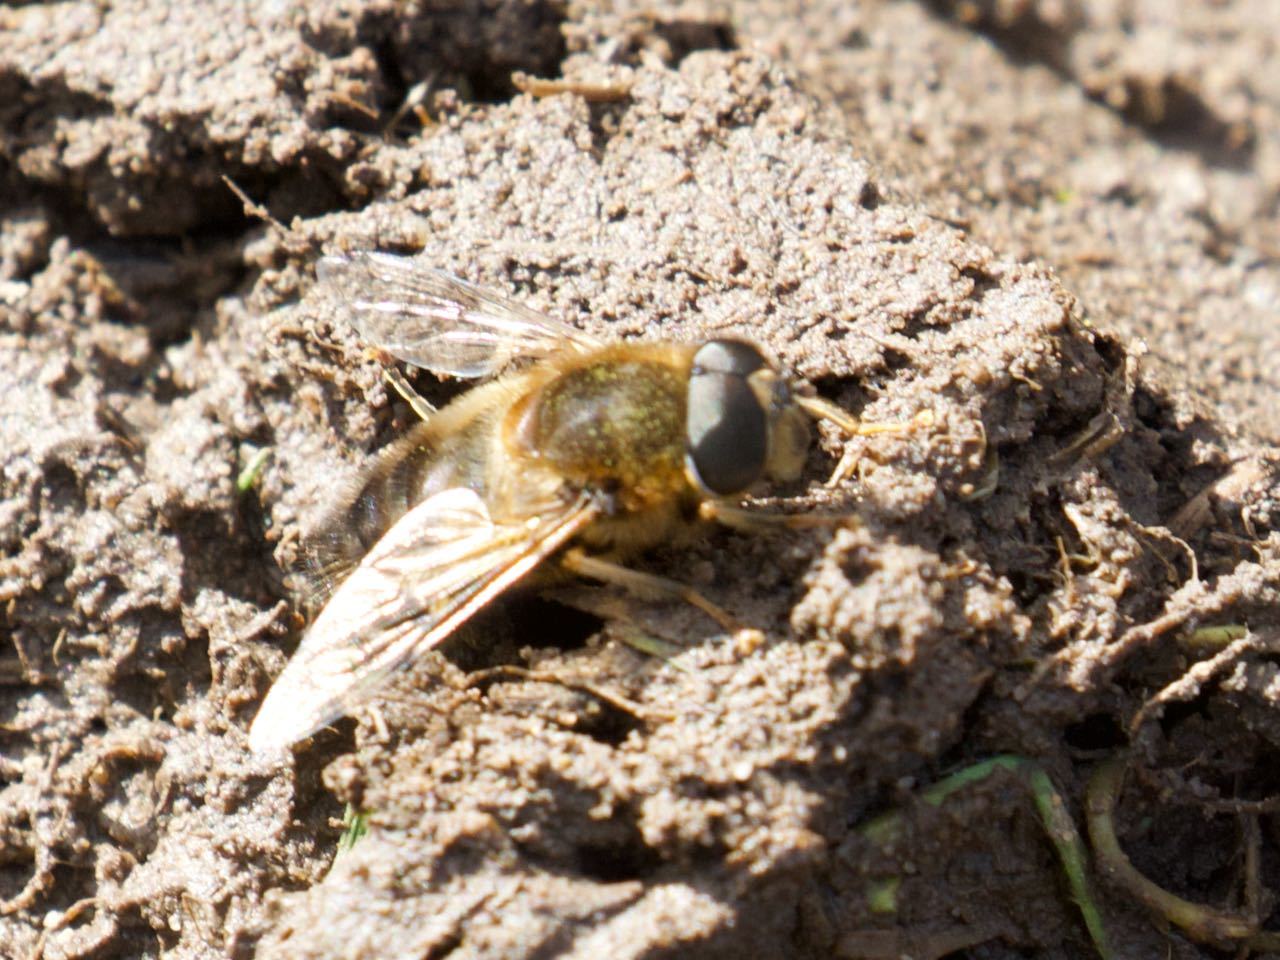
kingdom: Animalia
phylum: Arthropoda
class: Insecta
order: Diptera
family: Syrphidae
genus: Eristalis
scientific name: Eristalis pertinax
